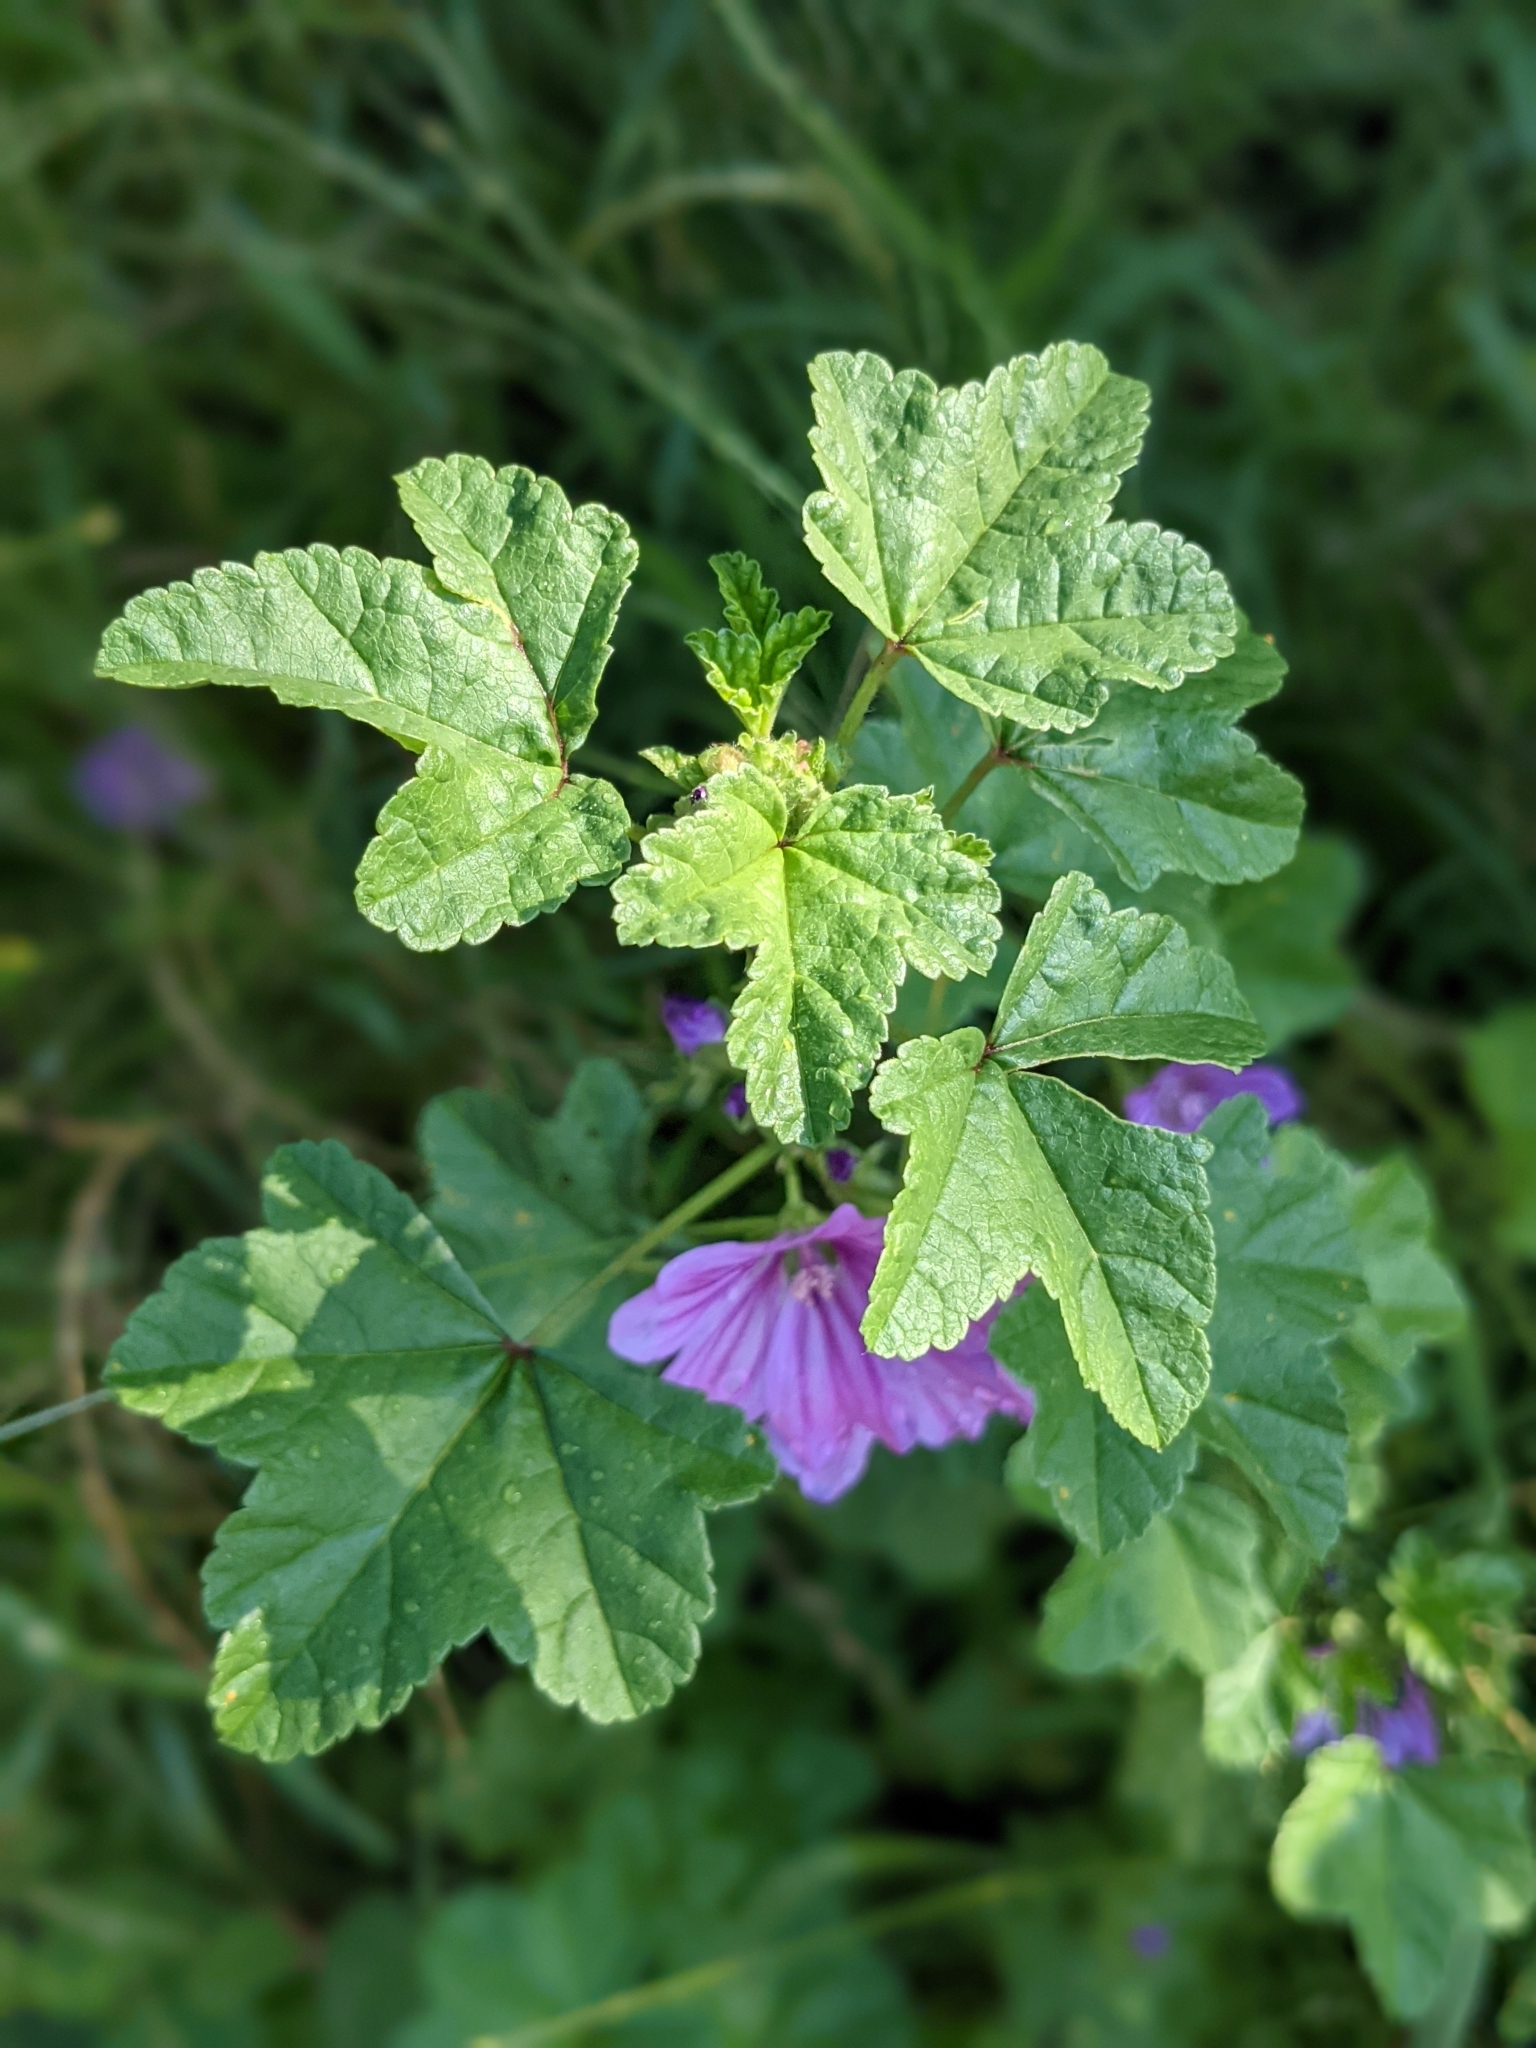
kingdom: Plantae
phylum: Tracheophyta
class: Magnoliopsida
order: Malvales
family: Malvaceae
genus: Malva
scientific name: Malva sylvestris
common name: Common mallow
